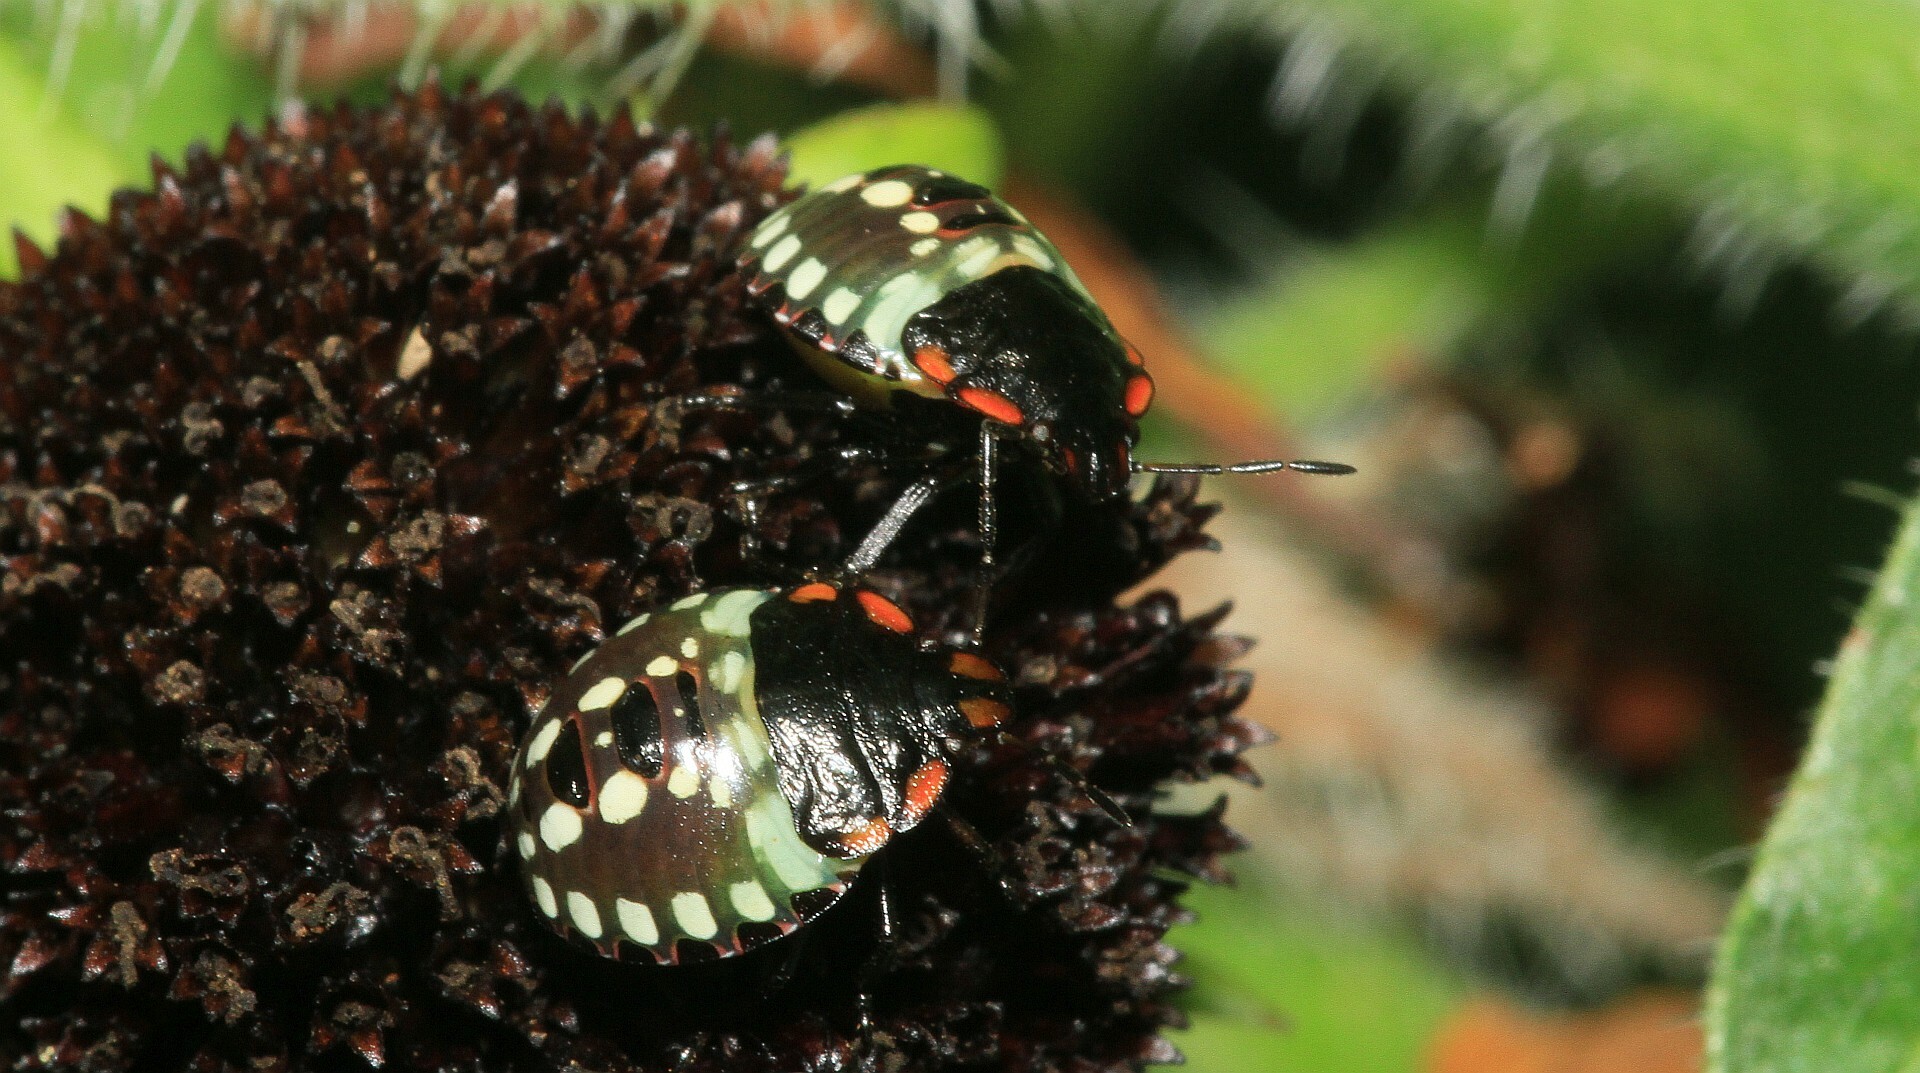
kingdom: Animalia
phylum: Arthropoda
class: Insecta
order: Hemiptera
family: Pentatomidae
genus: Nezara
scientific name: Nezara viridula
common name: Southern green stink bug
